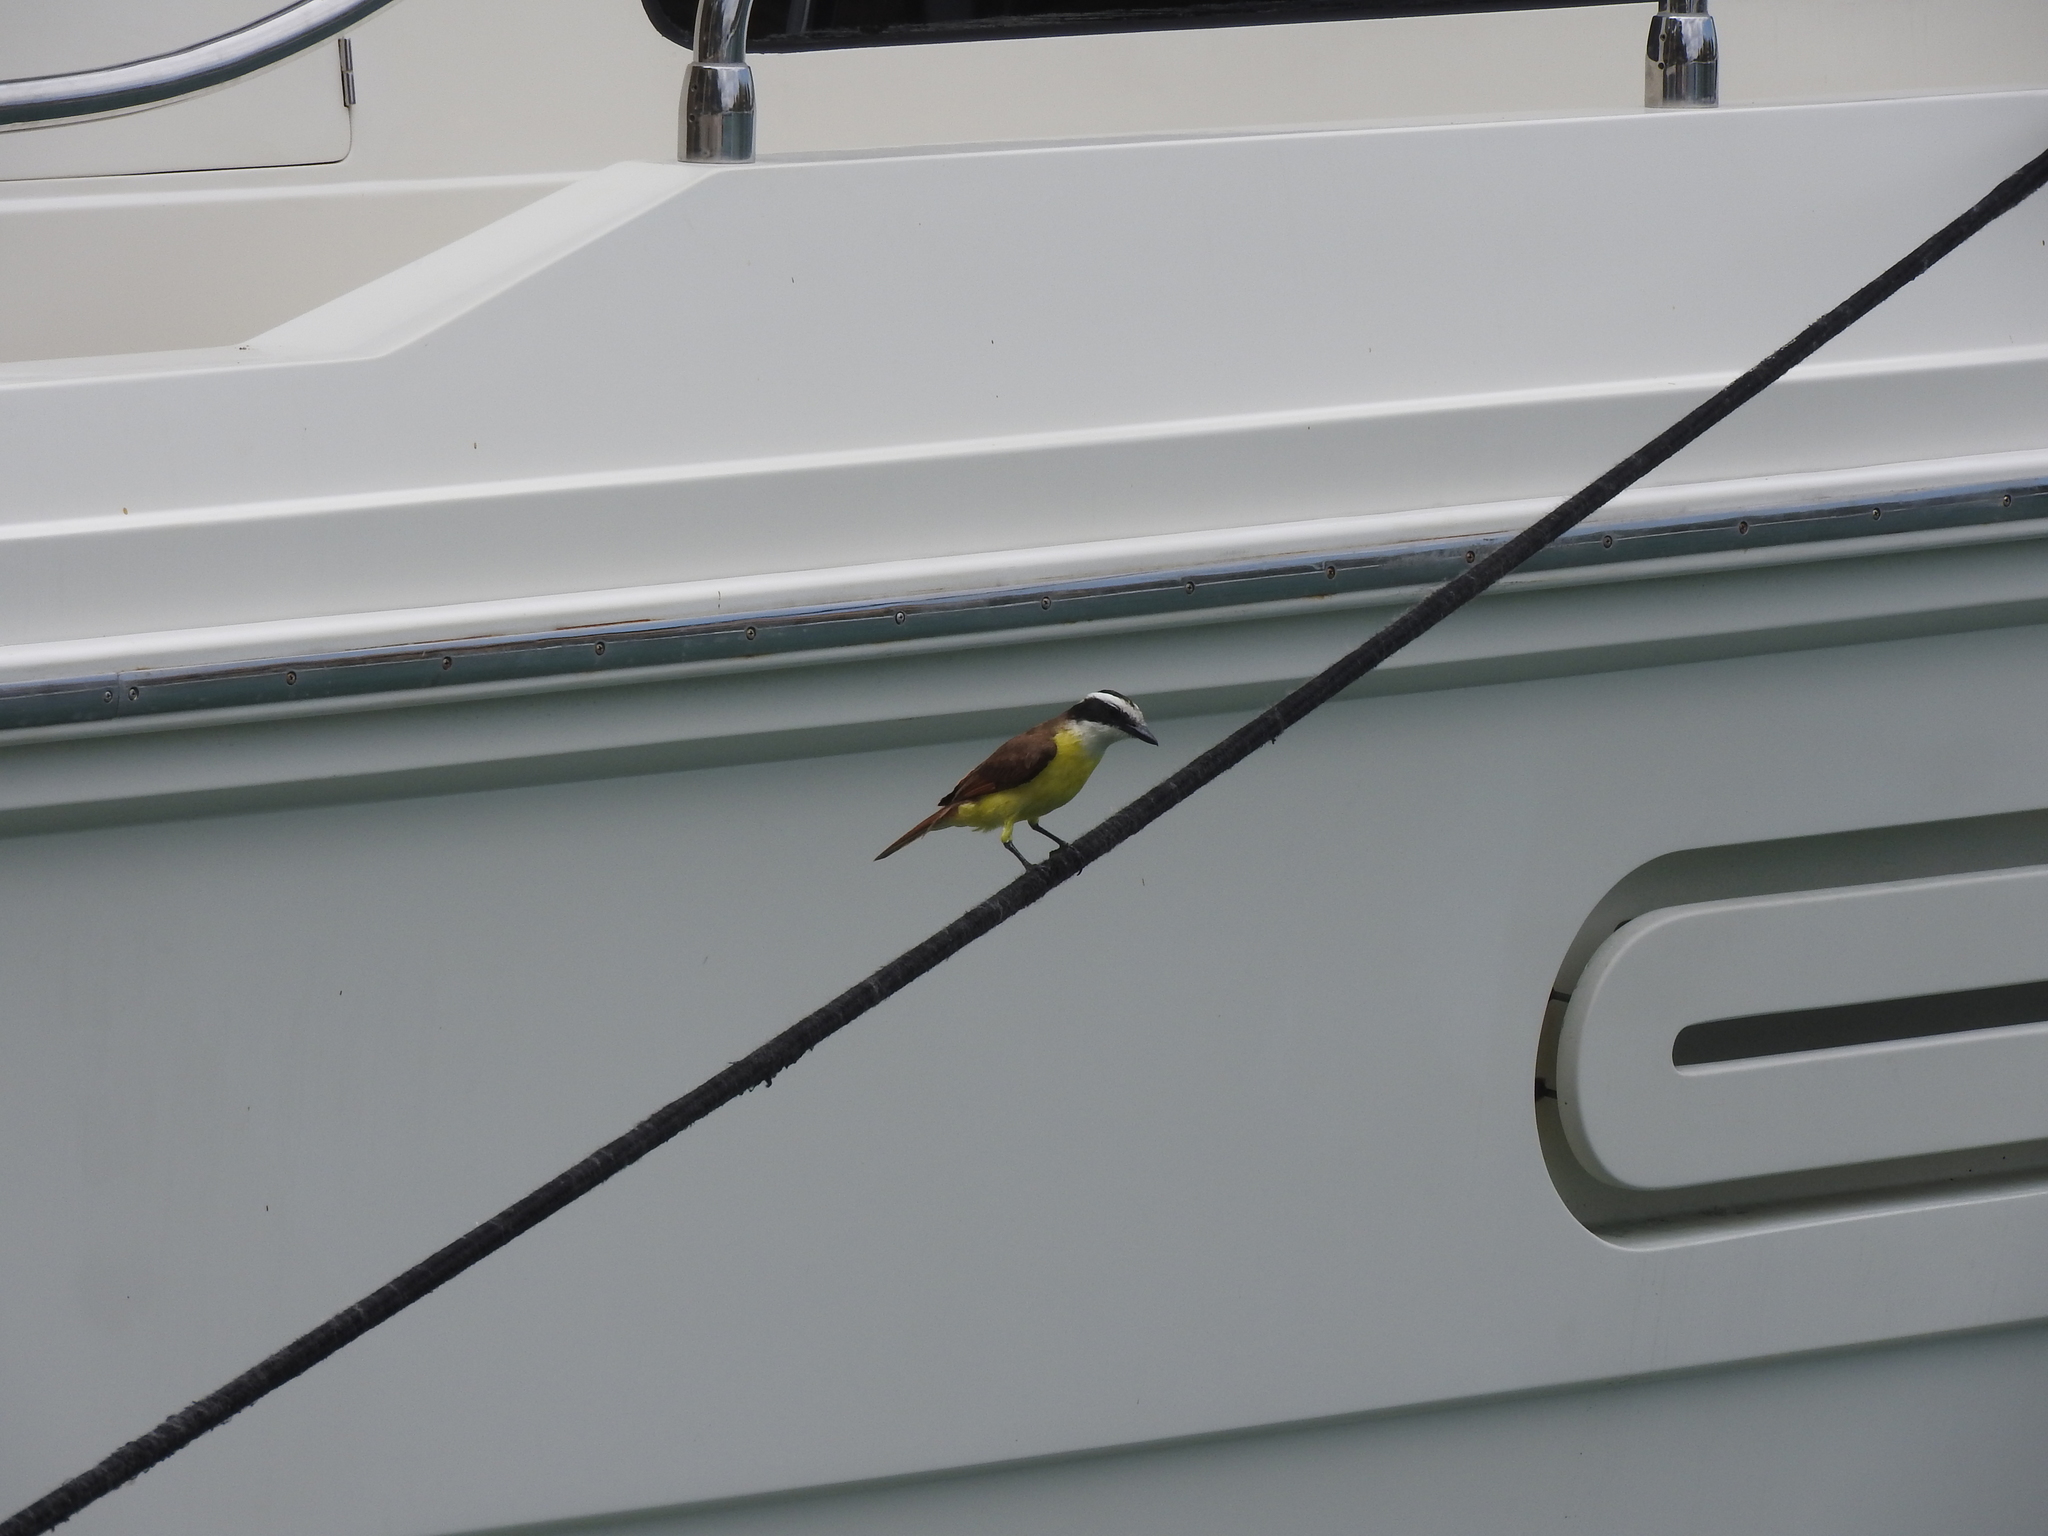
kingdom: Animalia
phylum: Chordata
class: Aves
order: Passeriformes
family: Tyrannidae
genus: Pitangus
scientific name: Pitangus sulphuratus
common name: Great kiskadee
